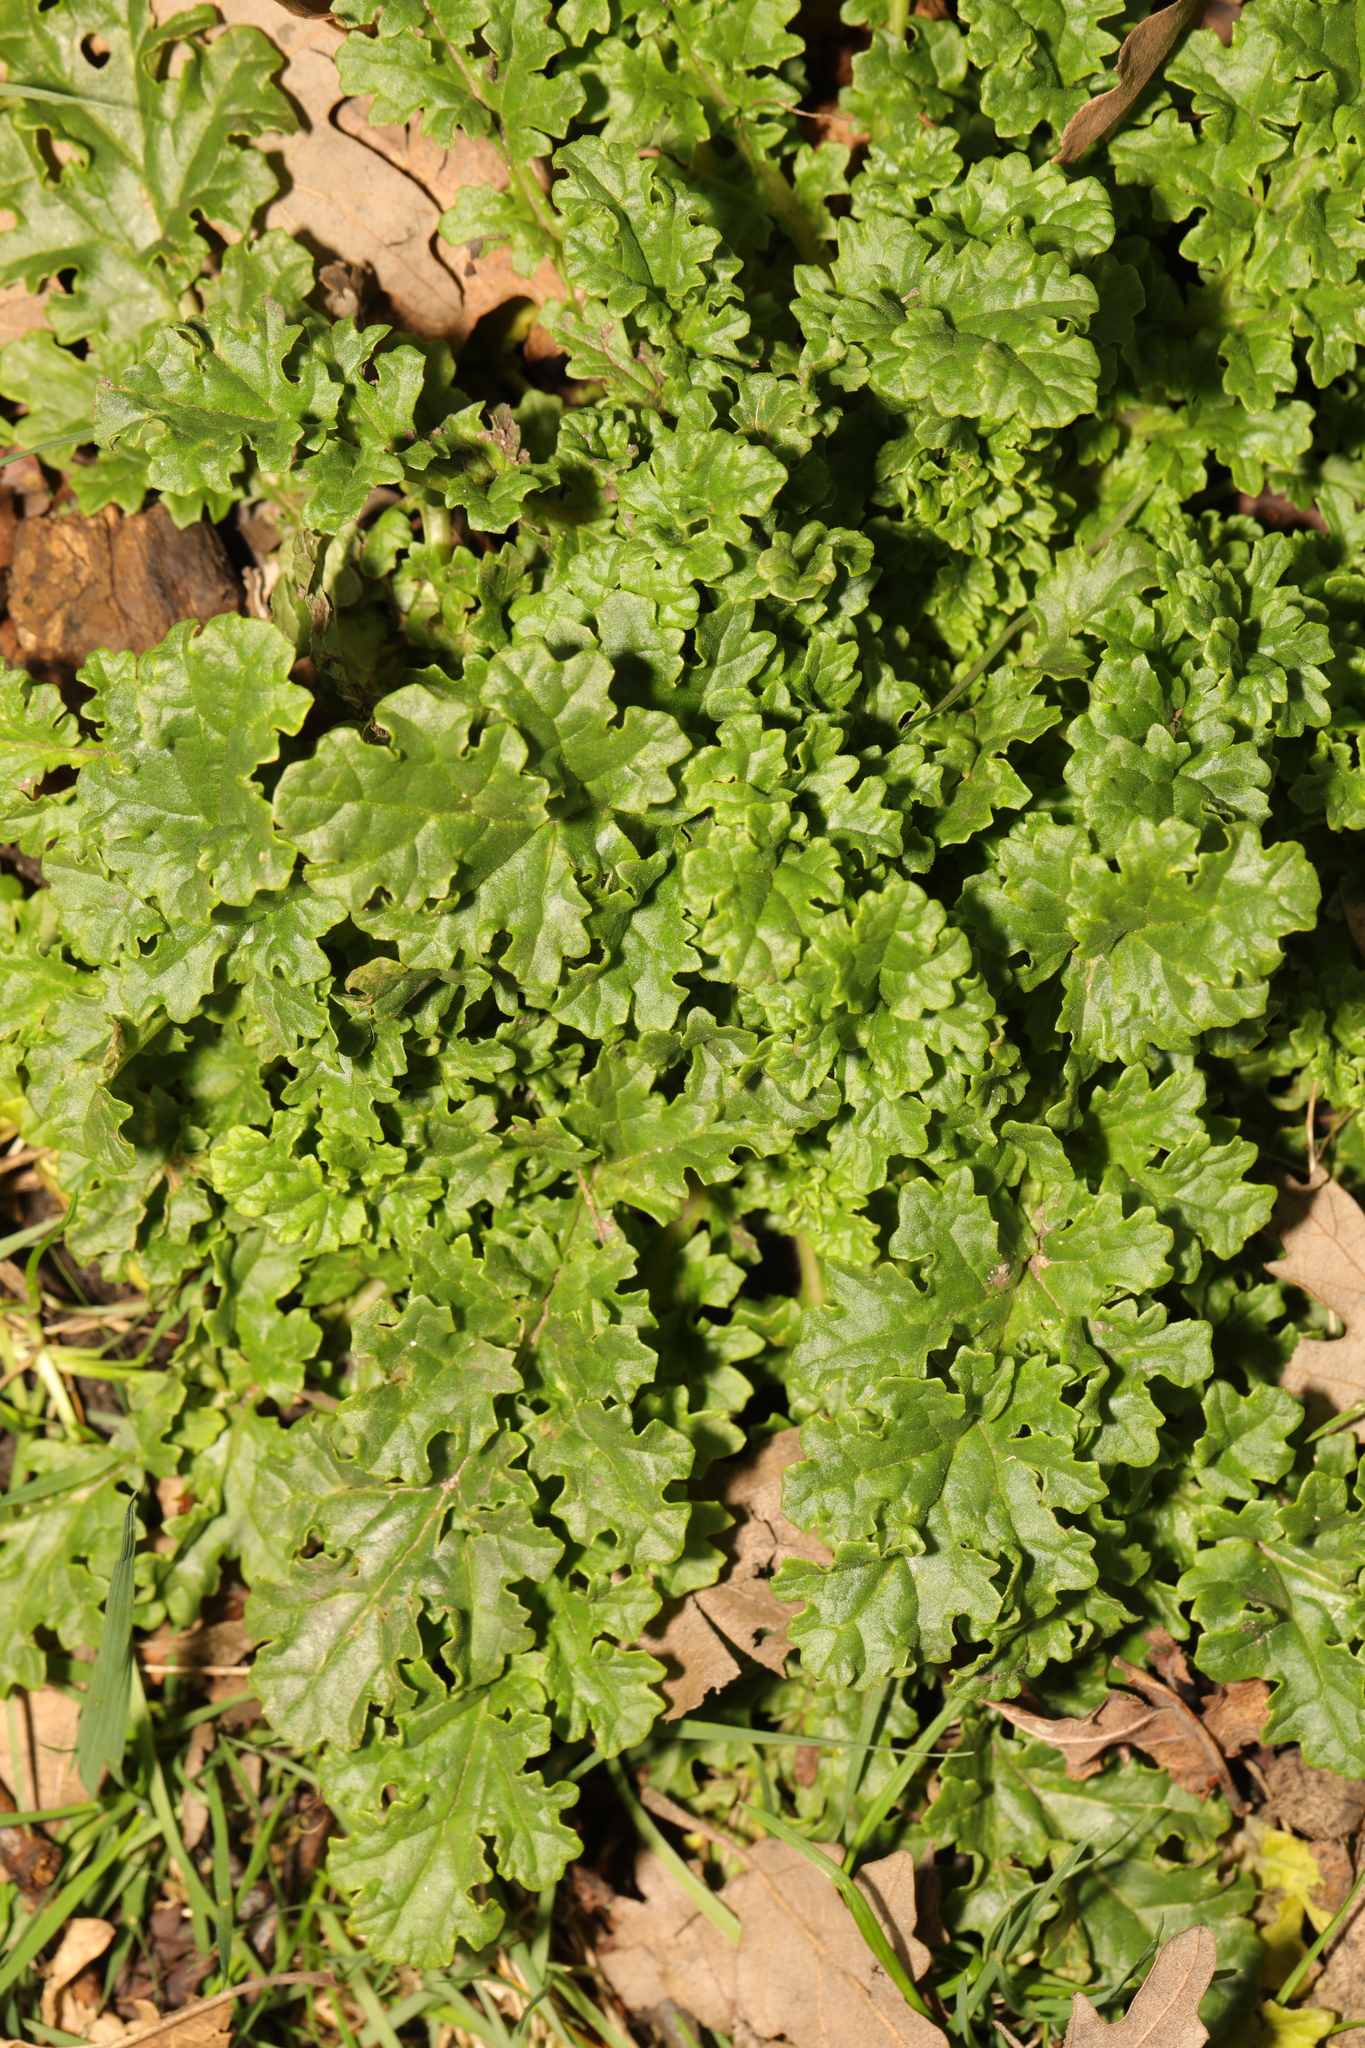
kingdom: Plantae
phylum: Tracheophyta
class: Magnoliopsida
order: Asterales
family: Asteraceae
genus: Jacobaea
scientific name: Jacobaea vulgaris
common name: Stinking willie
